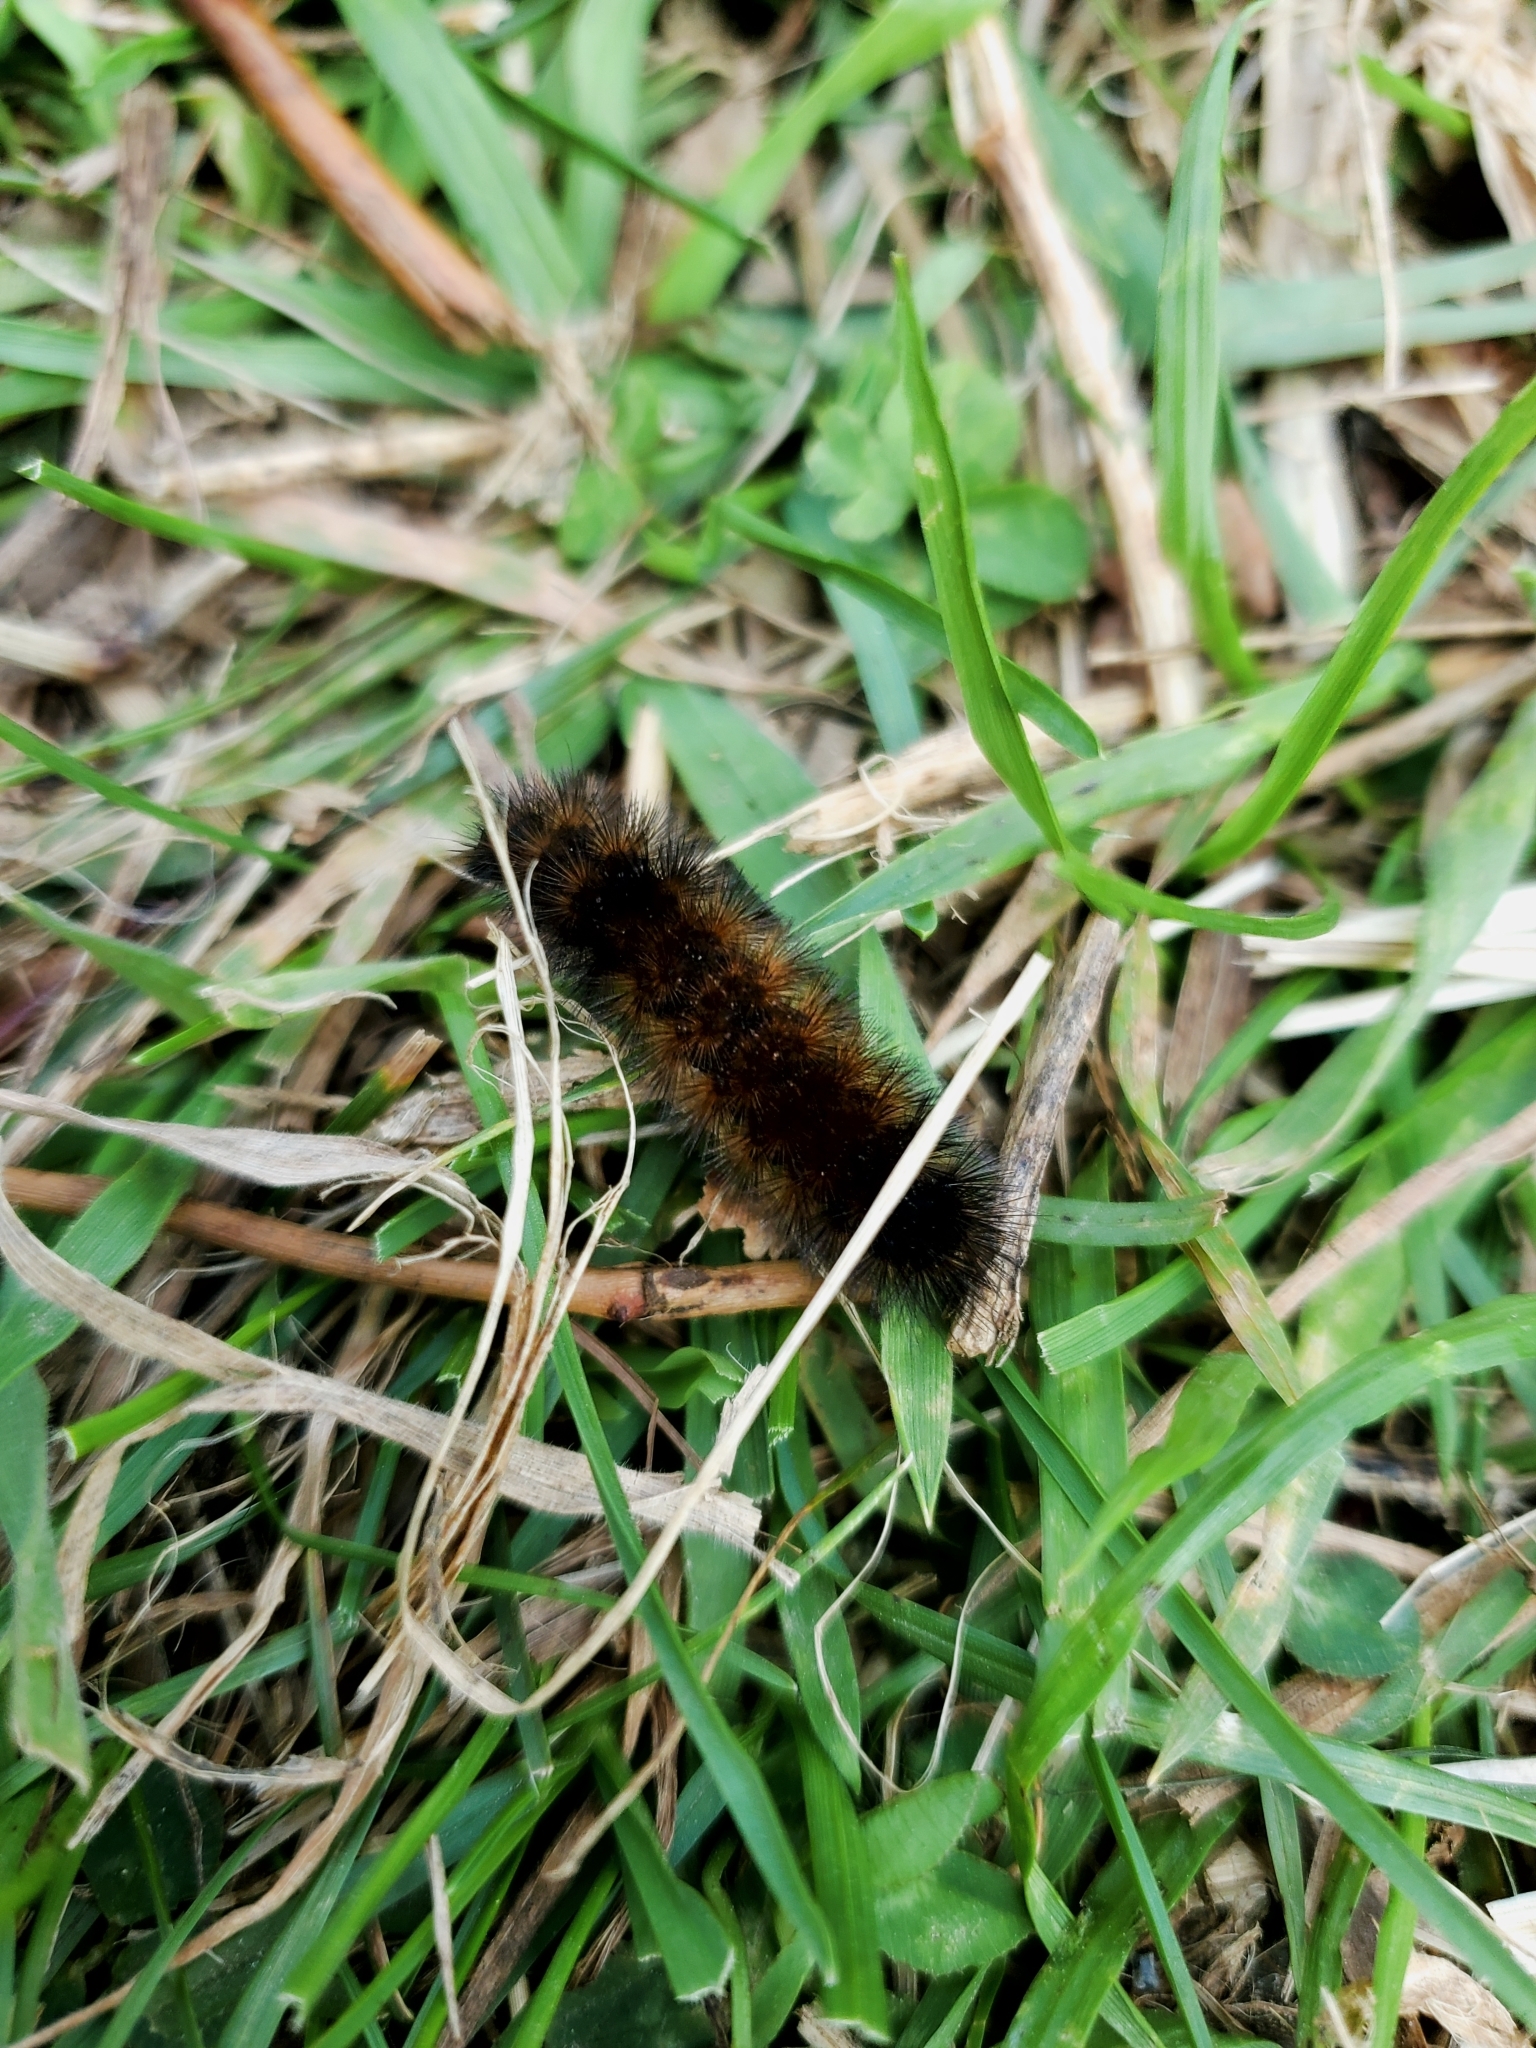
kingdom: Animalia
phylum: Arthropoda
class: Insecta
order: Lepidoptera
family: Erebidae
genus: Pyrrharctia
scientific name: Pyrrharctia isabella
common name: Isabella tiger moth
